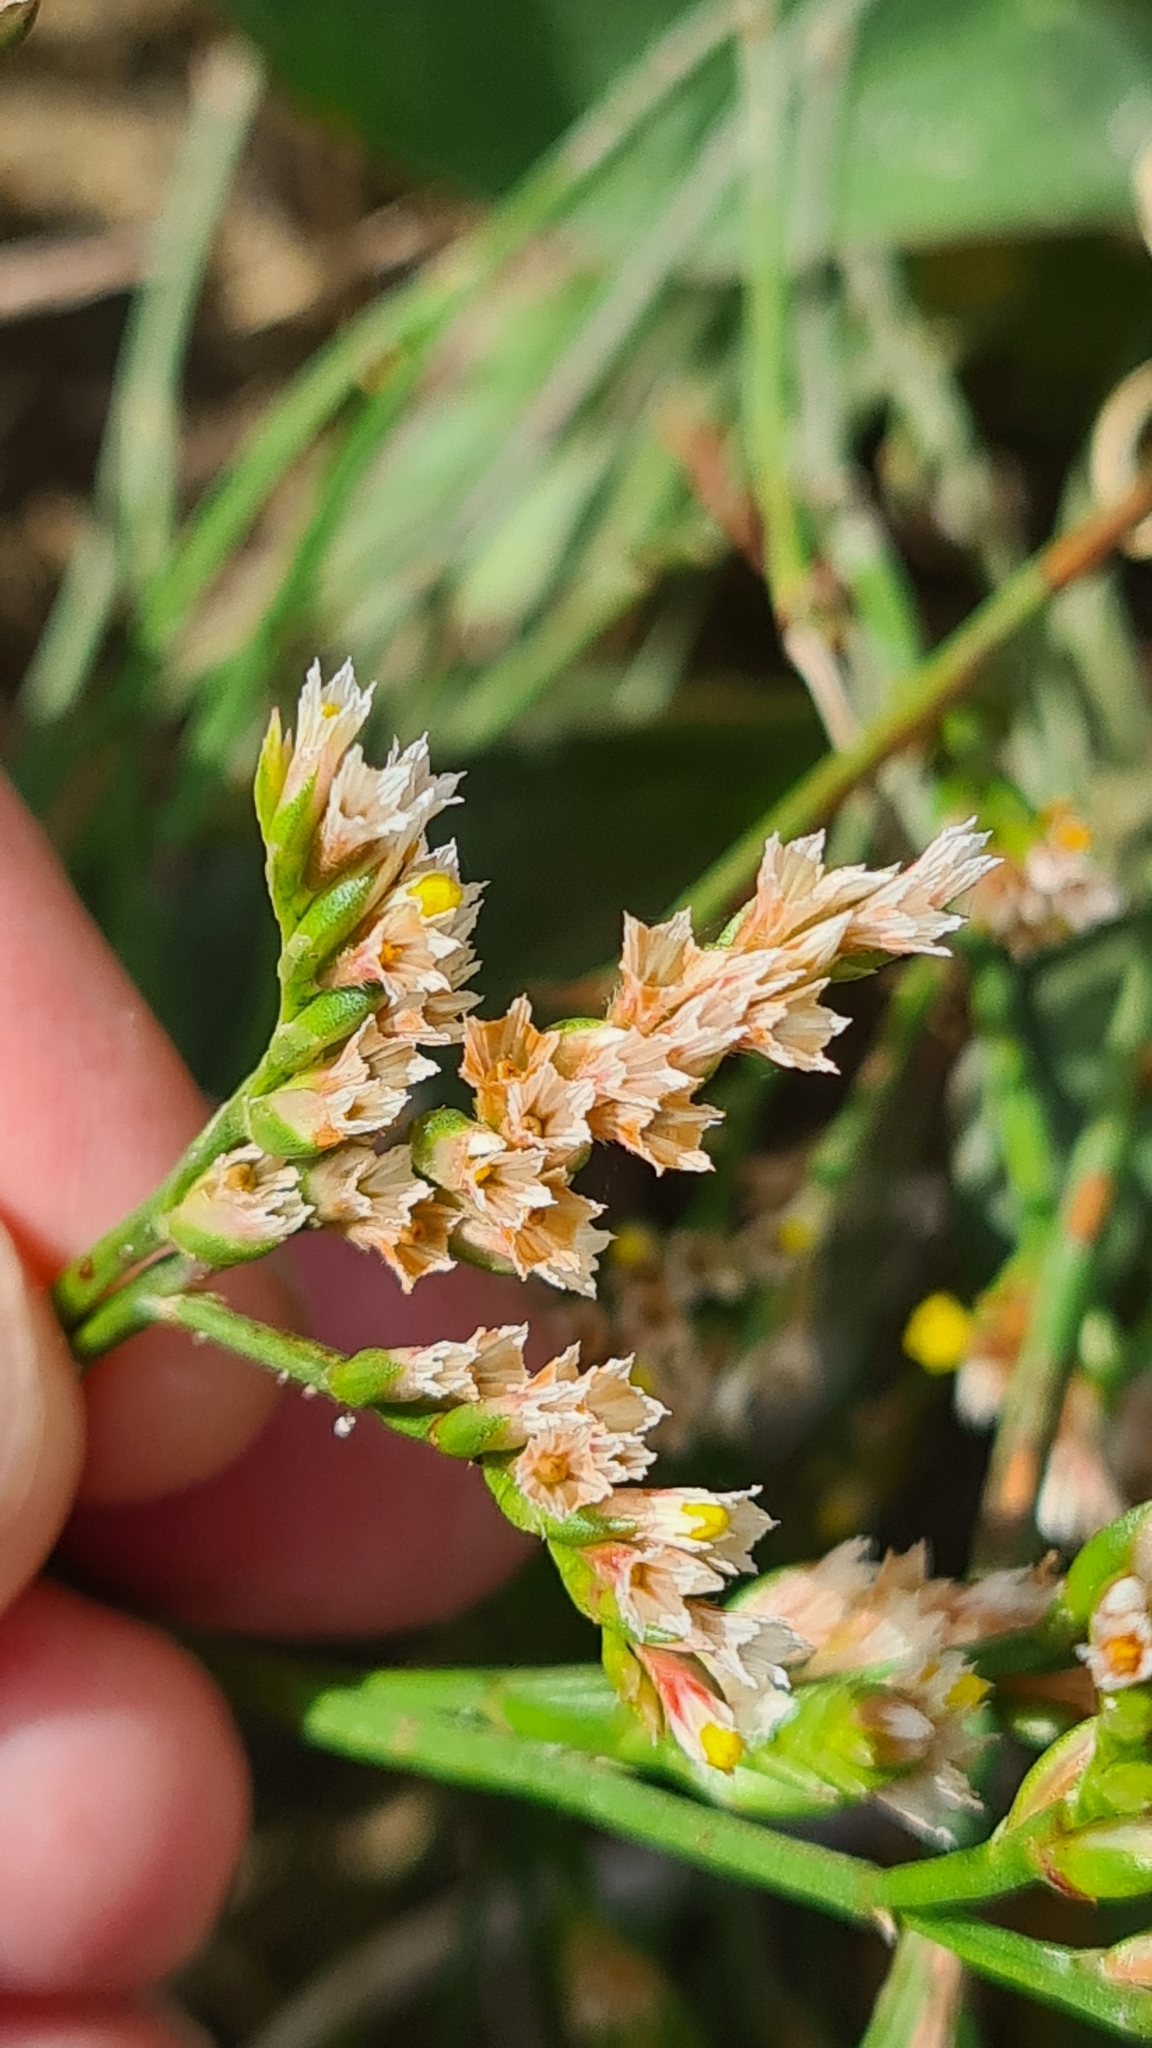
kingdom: Plantae
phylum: Tracheophyta
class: Magnoliopsida
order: Caryophyllales
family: Plumbaginaceae
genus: Limonium
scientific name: Limonium australe
